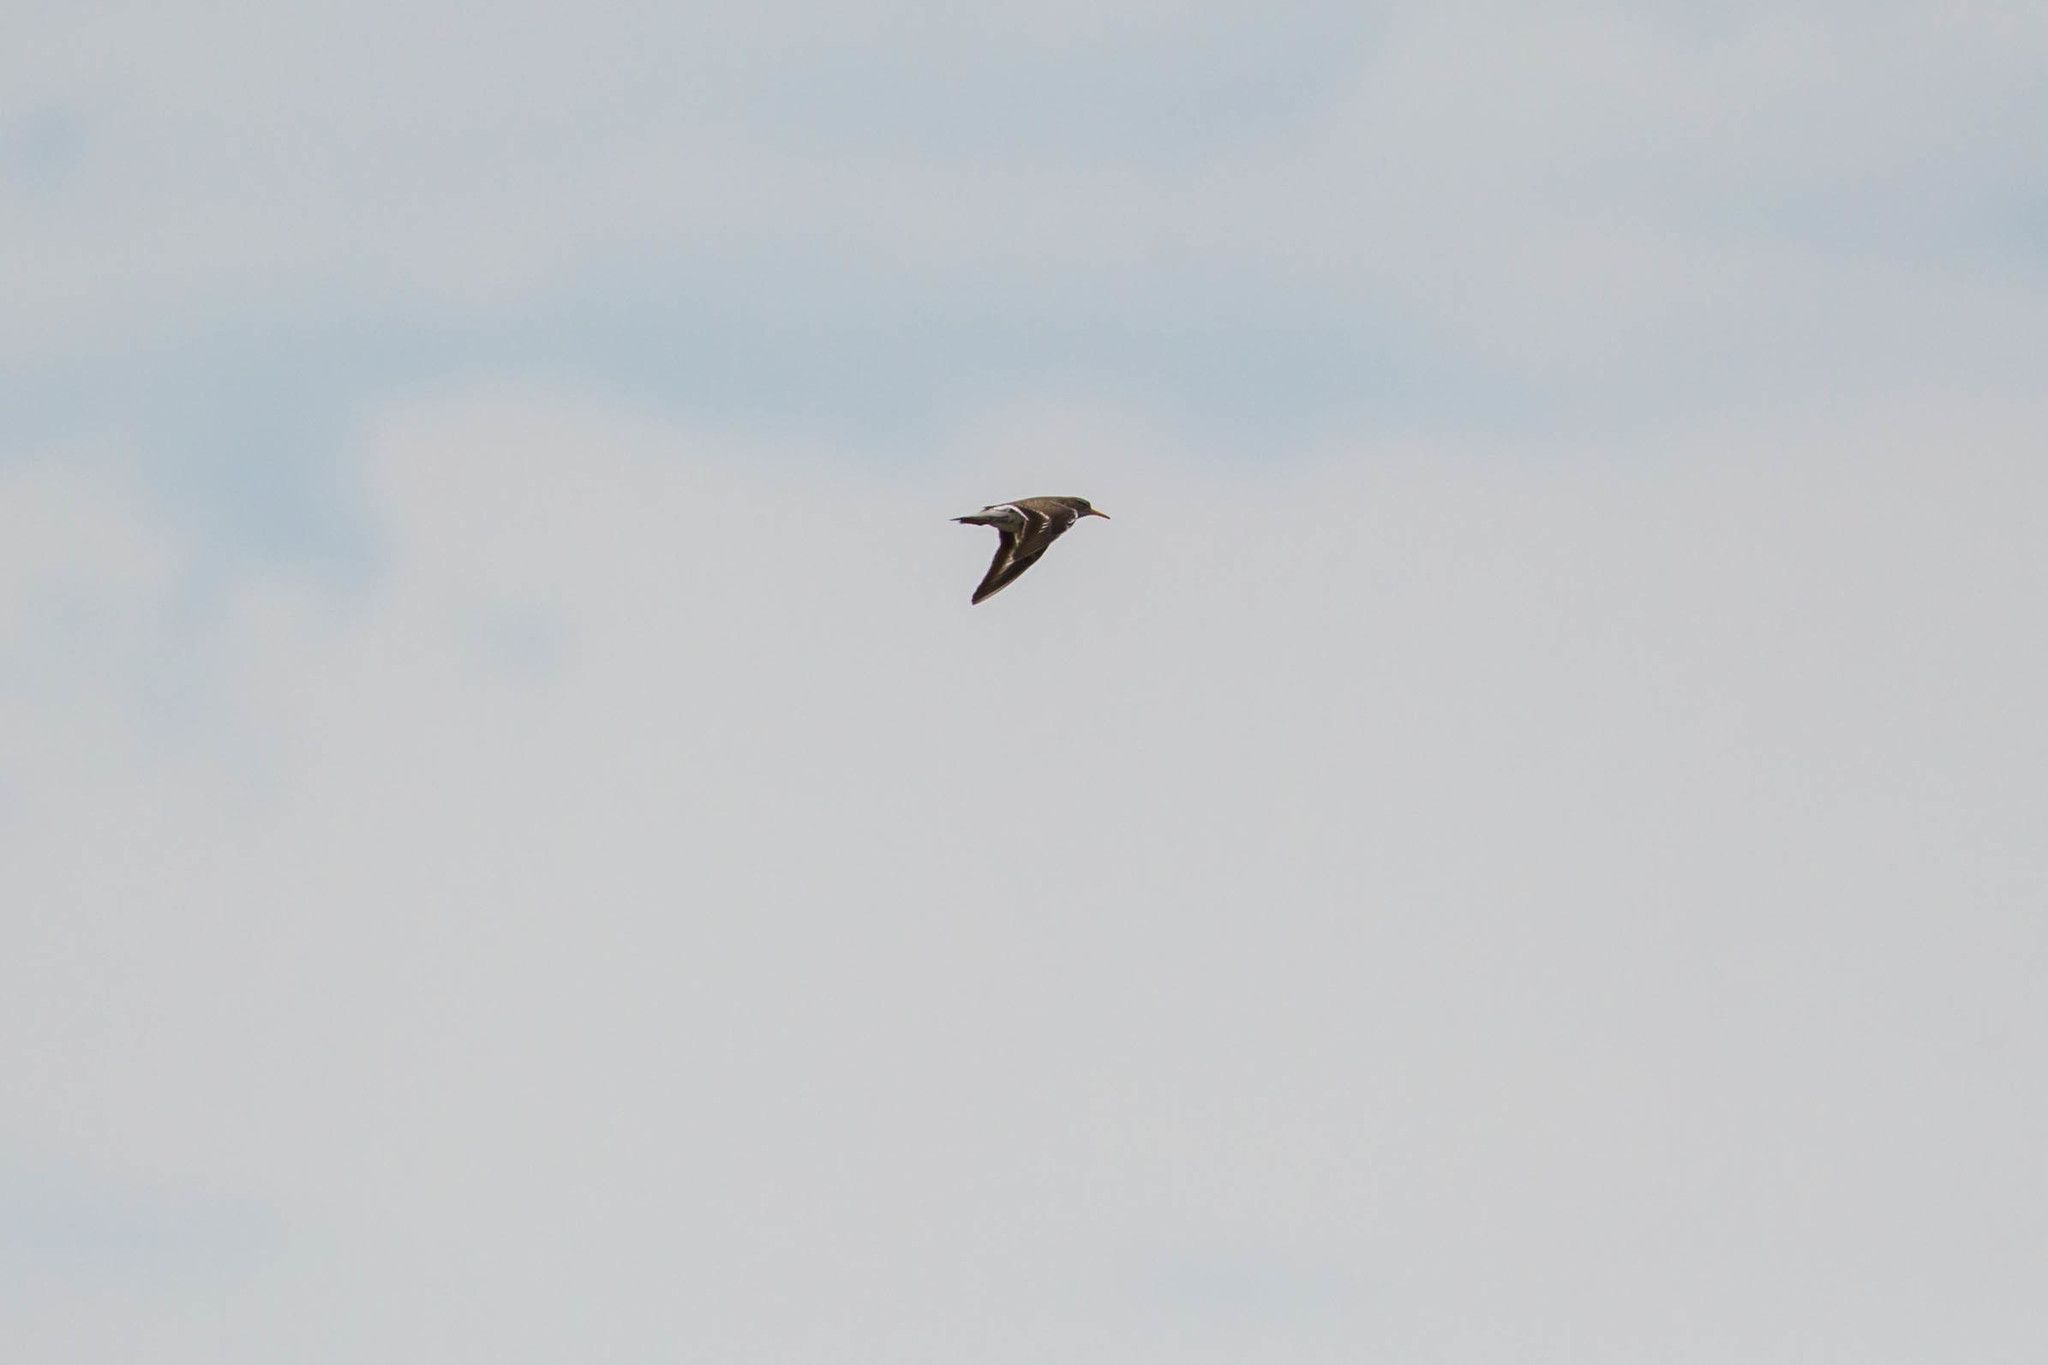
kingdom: Animalia
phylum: Chordata
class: Aves
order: Charadriiformes
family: Scolopacidae
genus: Actitis
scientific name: Actitis macularius
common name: Spotted sandpiper
